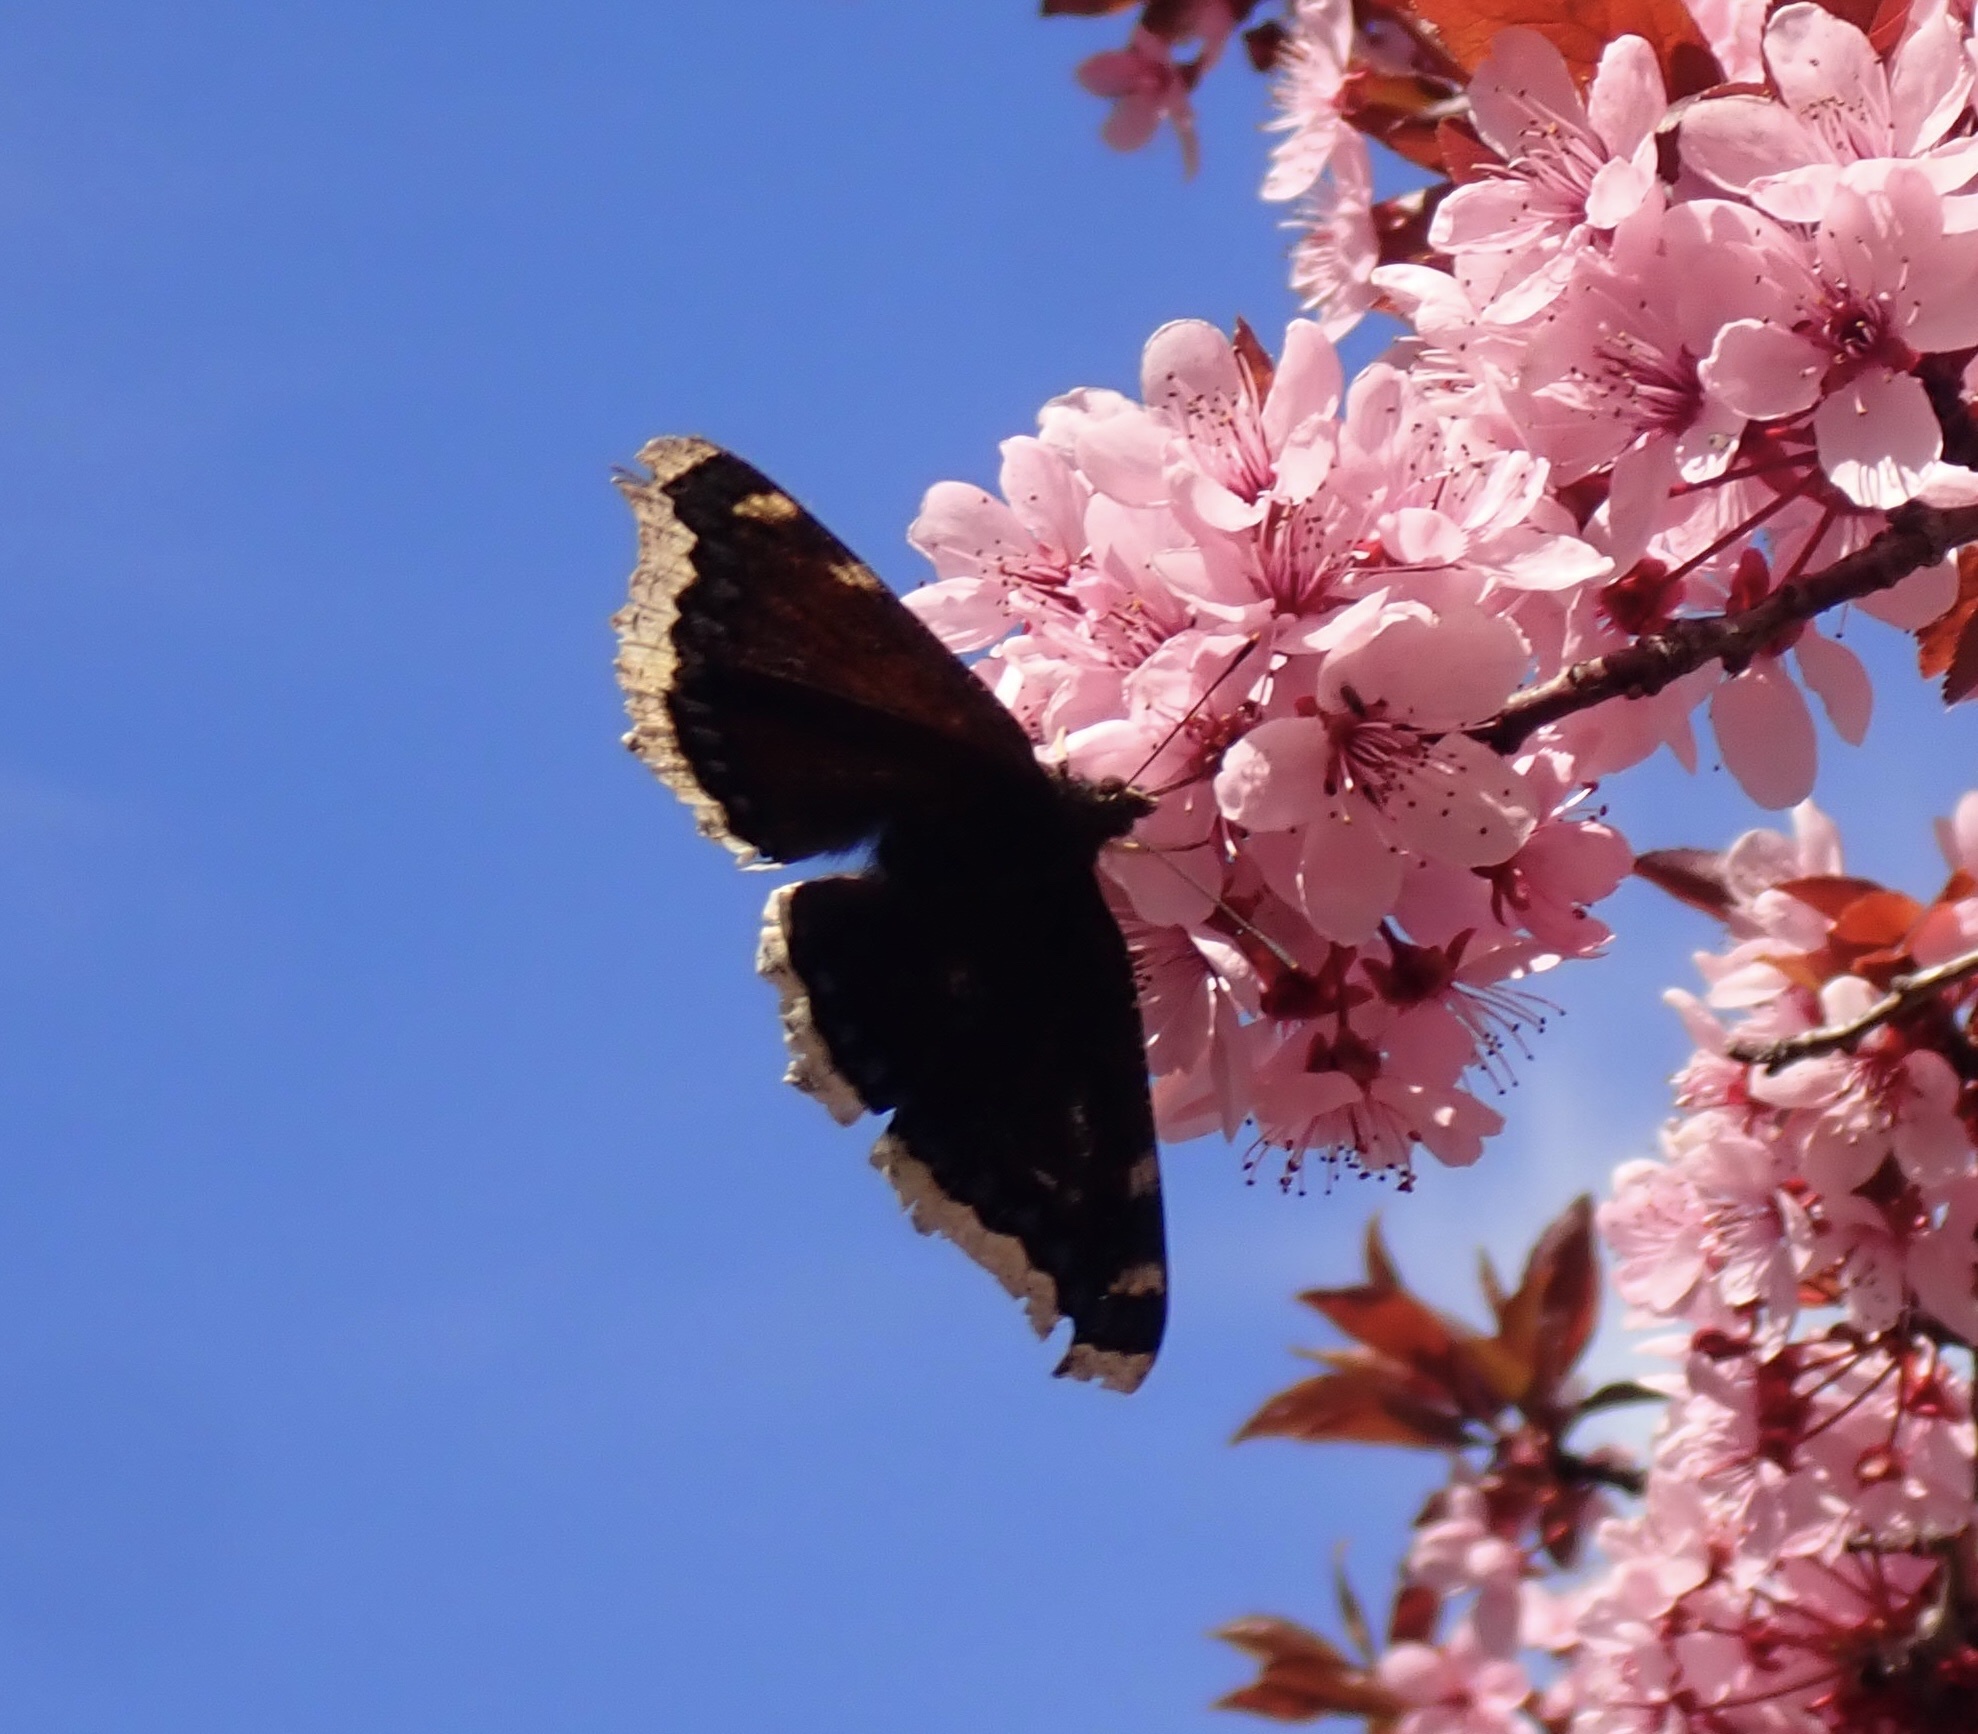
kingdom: Animalia
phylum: Arthropoda
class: Insecta
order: Lepidoptera
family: Nymphalidae
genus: Nymphalis
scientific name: Nymphalis antiopa
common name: Camberwell beauty
